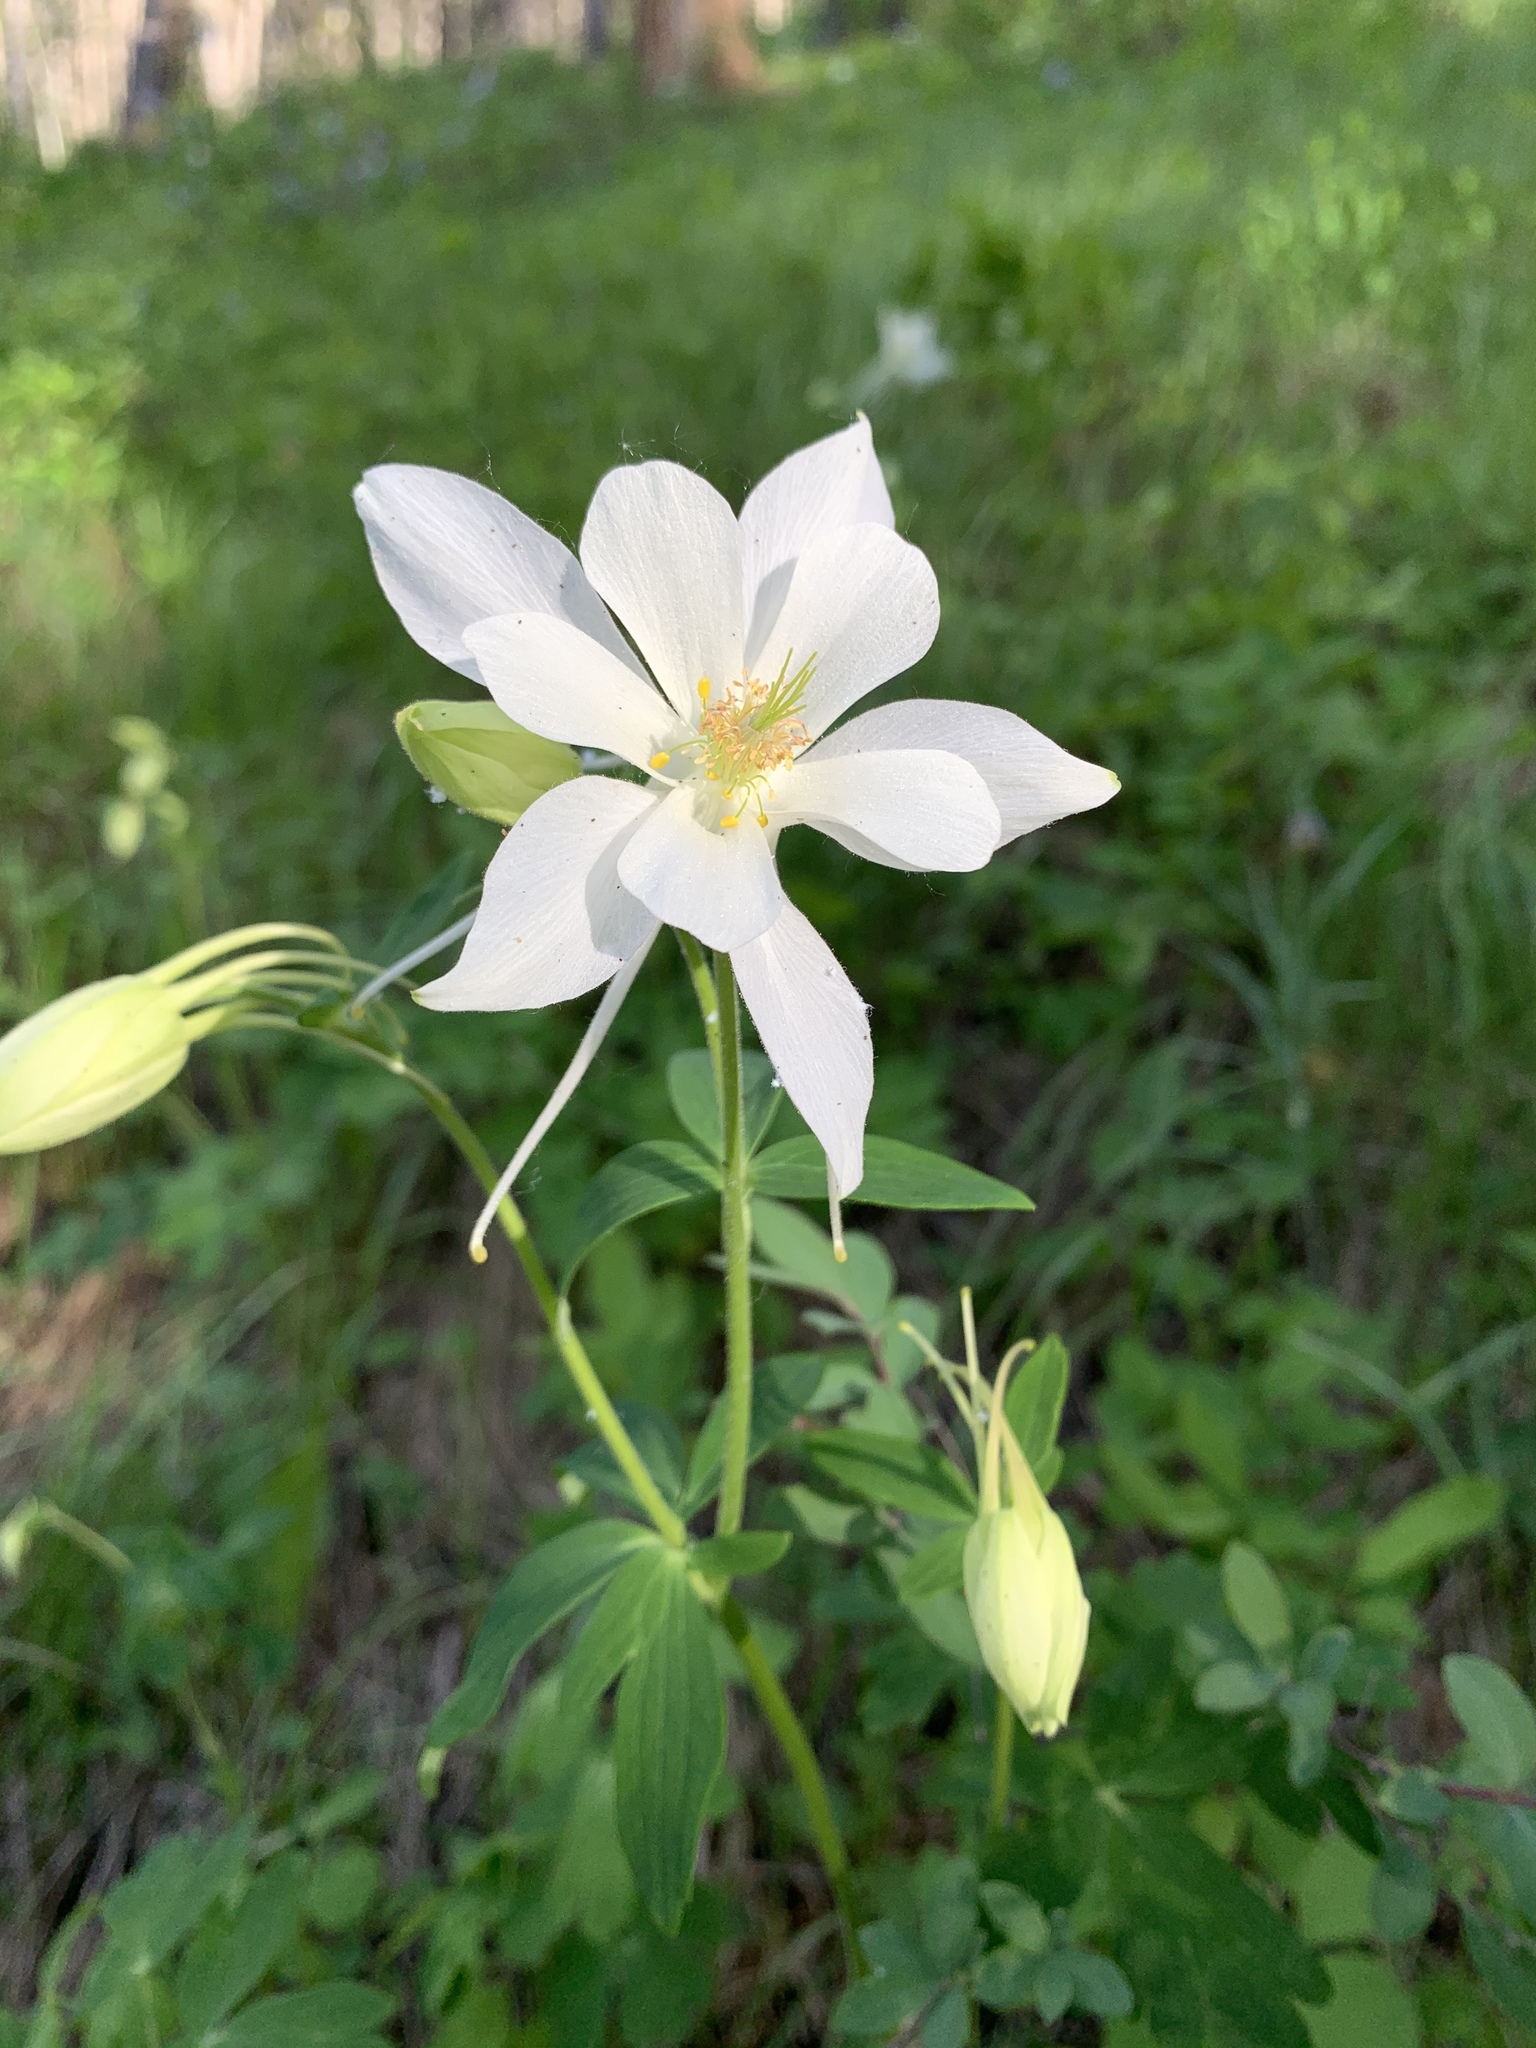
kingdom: Plantae
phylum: Tracheophyta
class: Magnoliopsida
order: Ranunculales
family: Ranunculaceae
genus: Aquilegia
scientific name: Aquilegia coerulea
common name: Rocky mountain columbine
